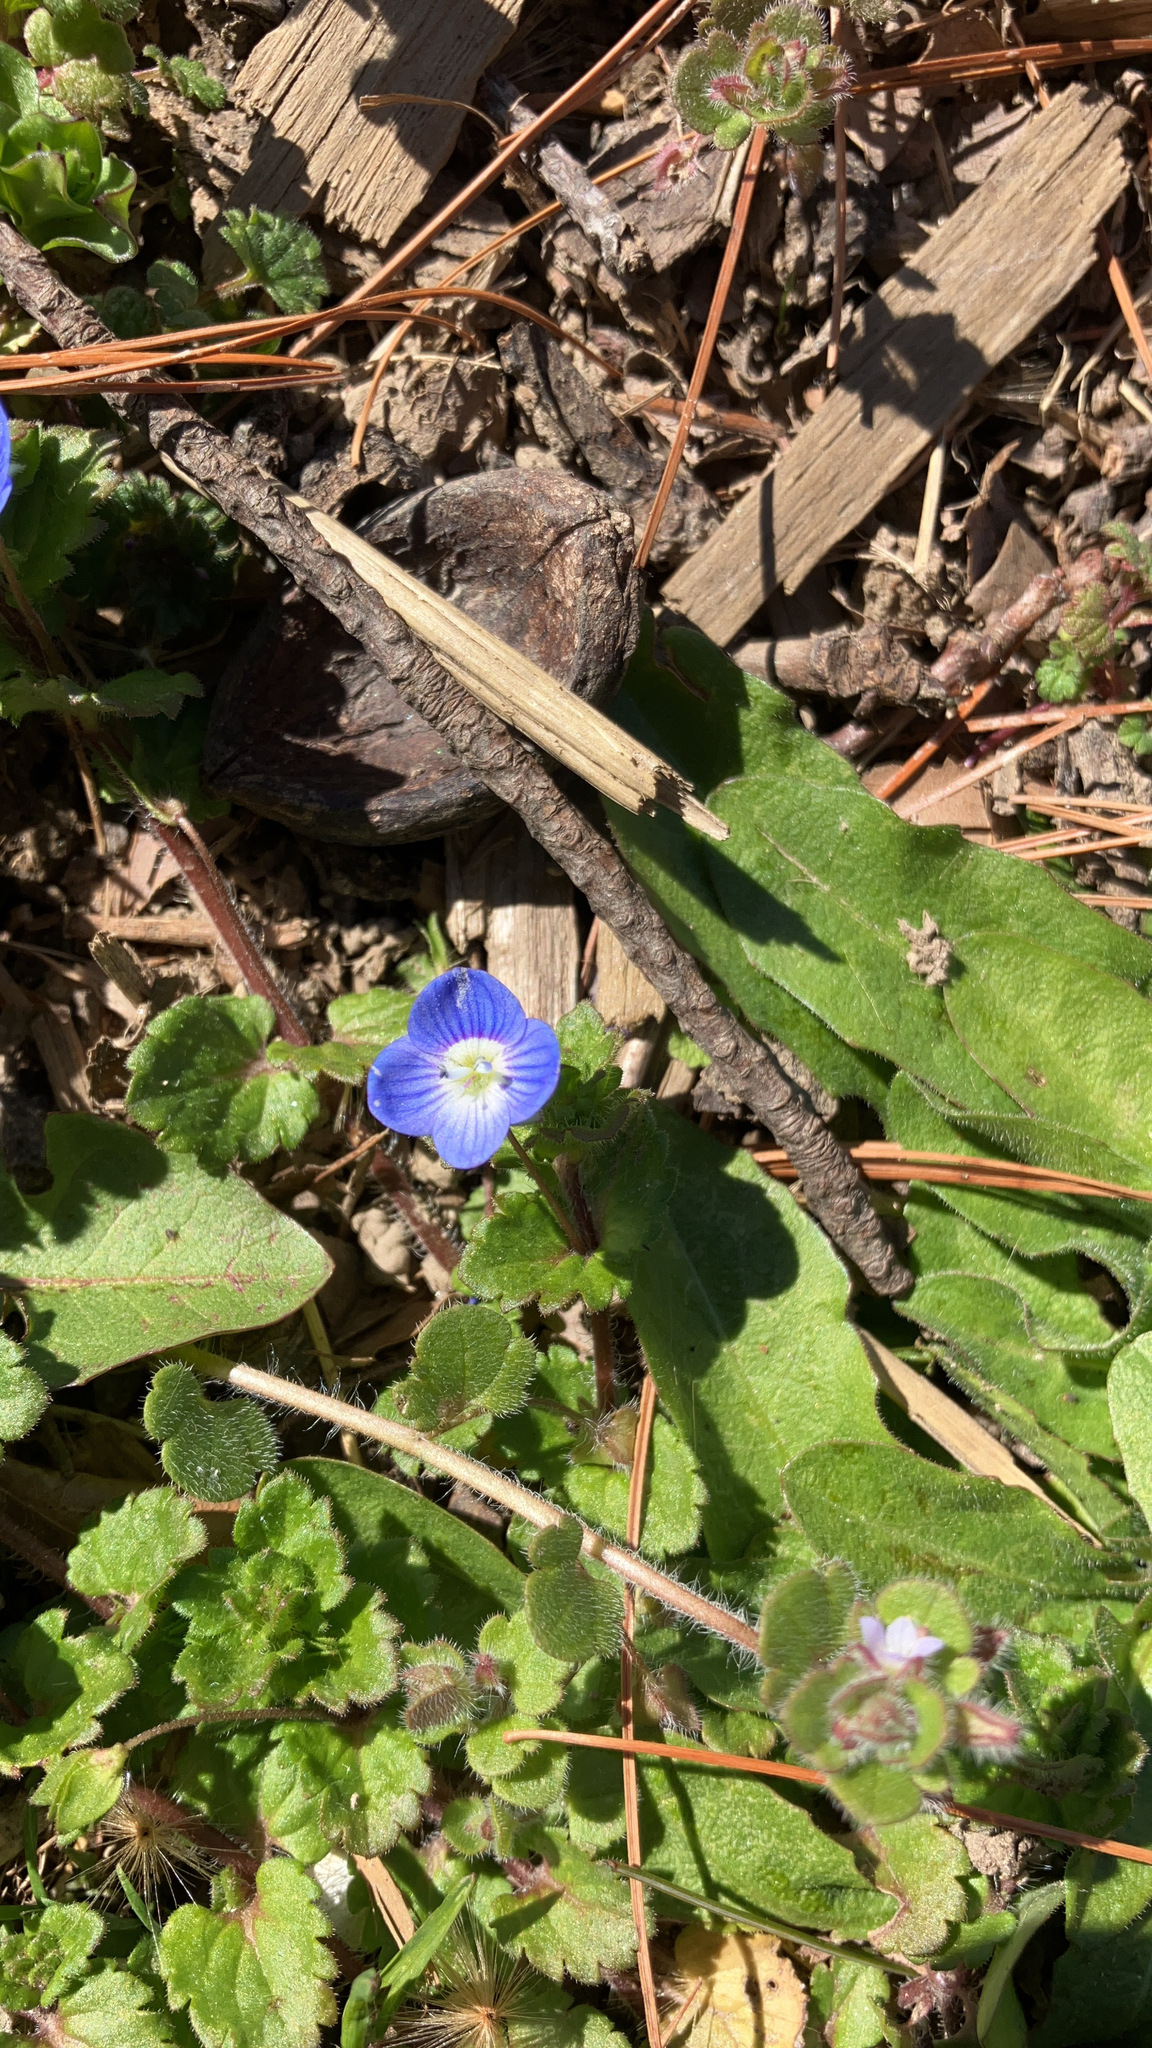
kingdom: Plantae
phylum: Tracheophyta
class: Magnoliopsida
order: Lamiales
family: Plantaginaceae
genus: Veronica
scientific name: Veronica persica
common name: Common field-speedwell
